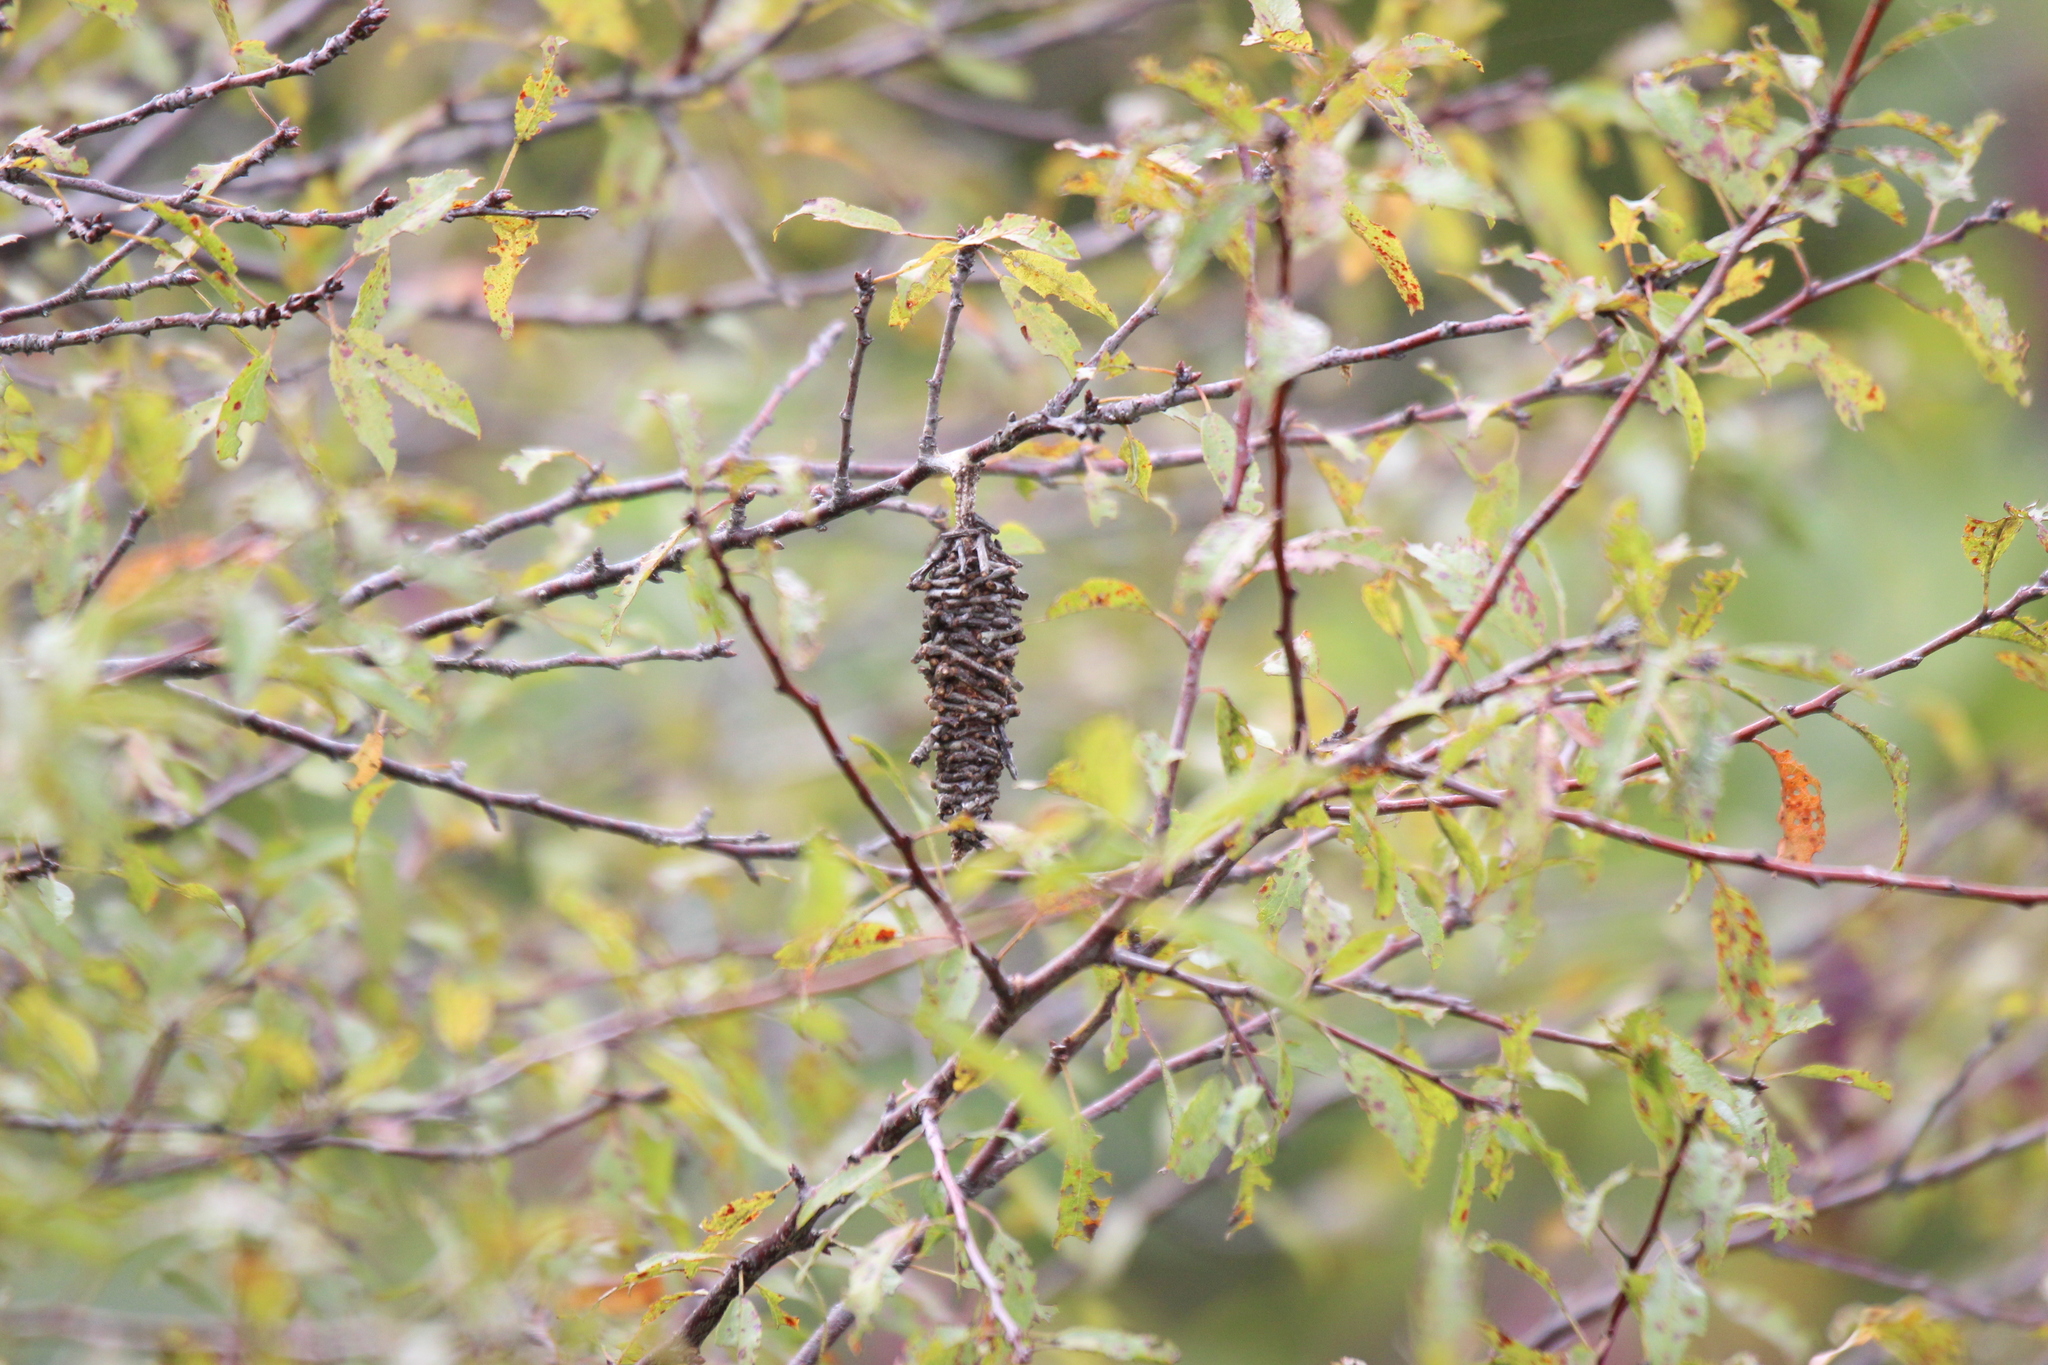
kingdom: Animalia
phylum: Arthropoda
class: Insecta
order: Lepidoptera
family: Psychidae
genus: Oiketicus
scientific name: Oiketicus
